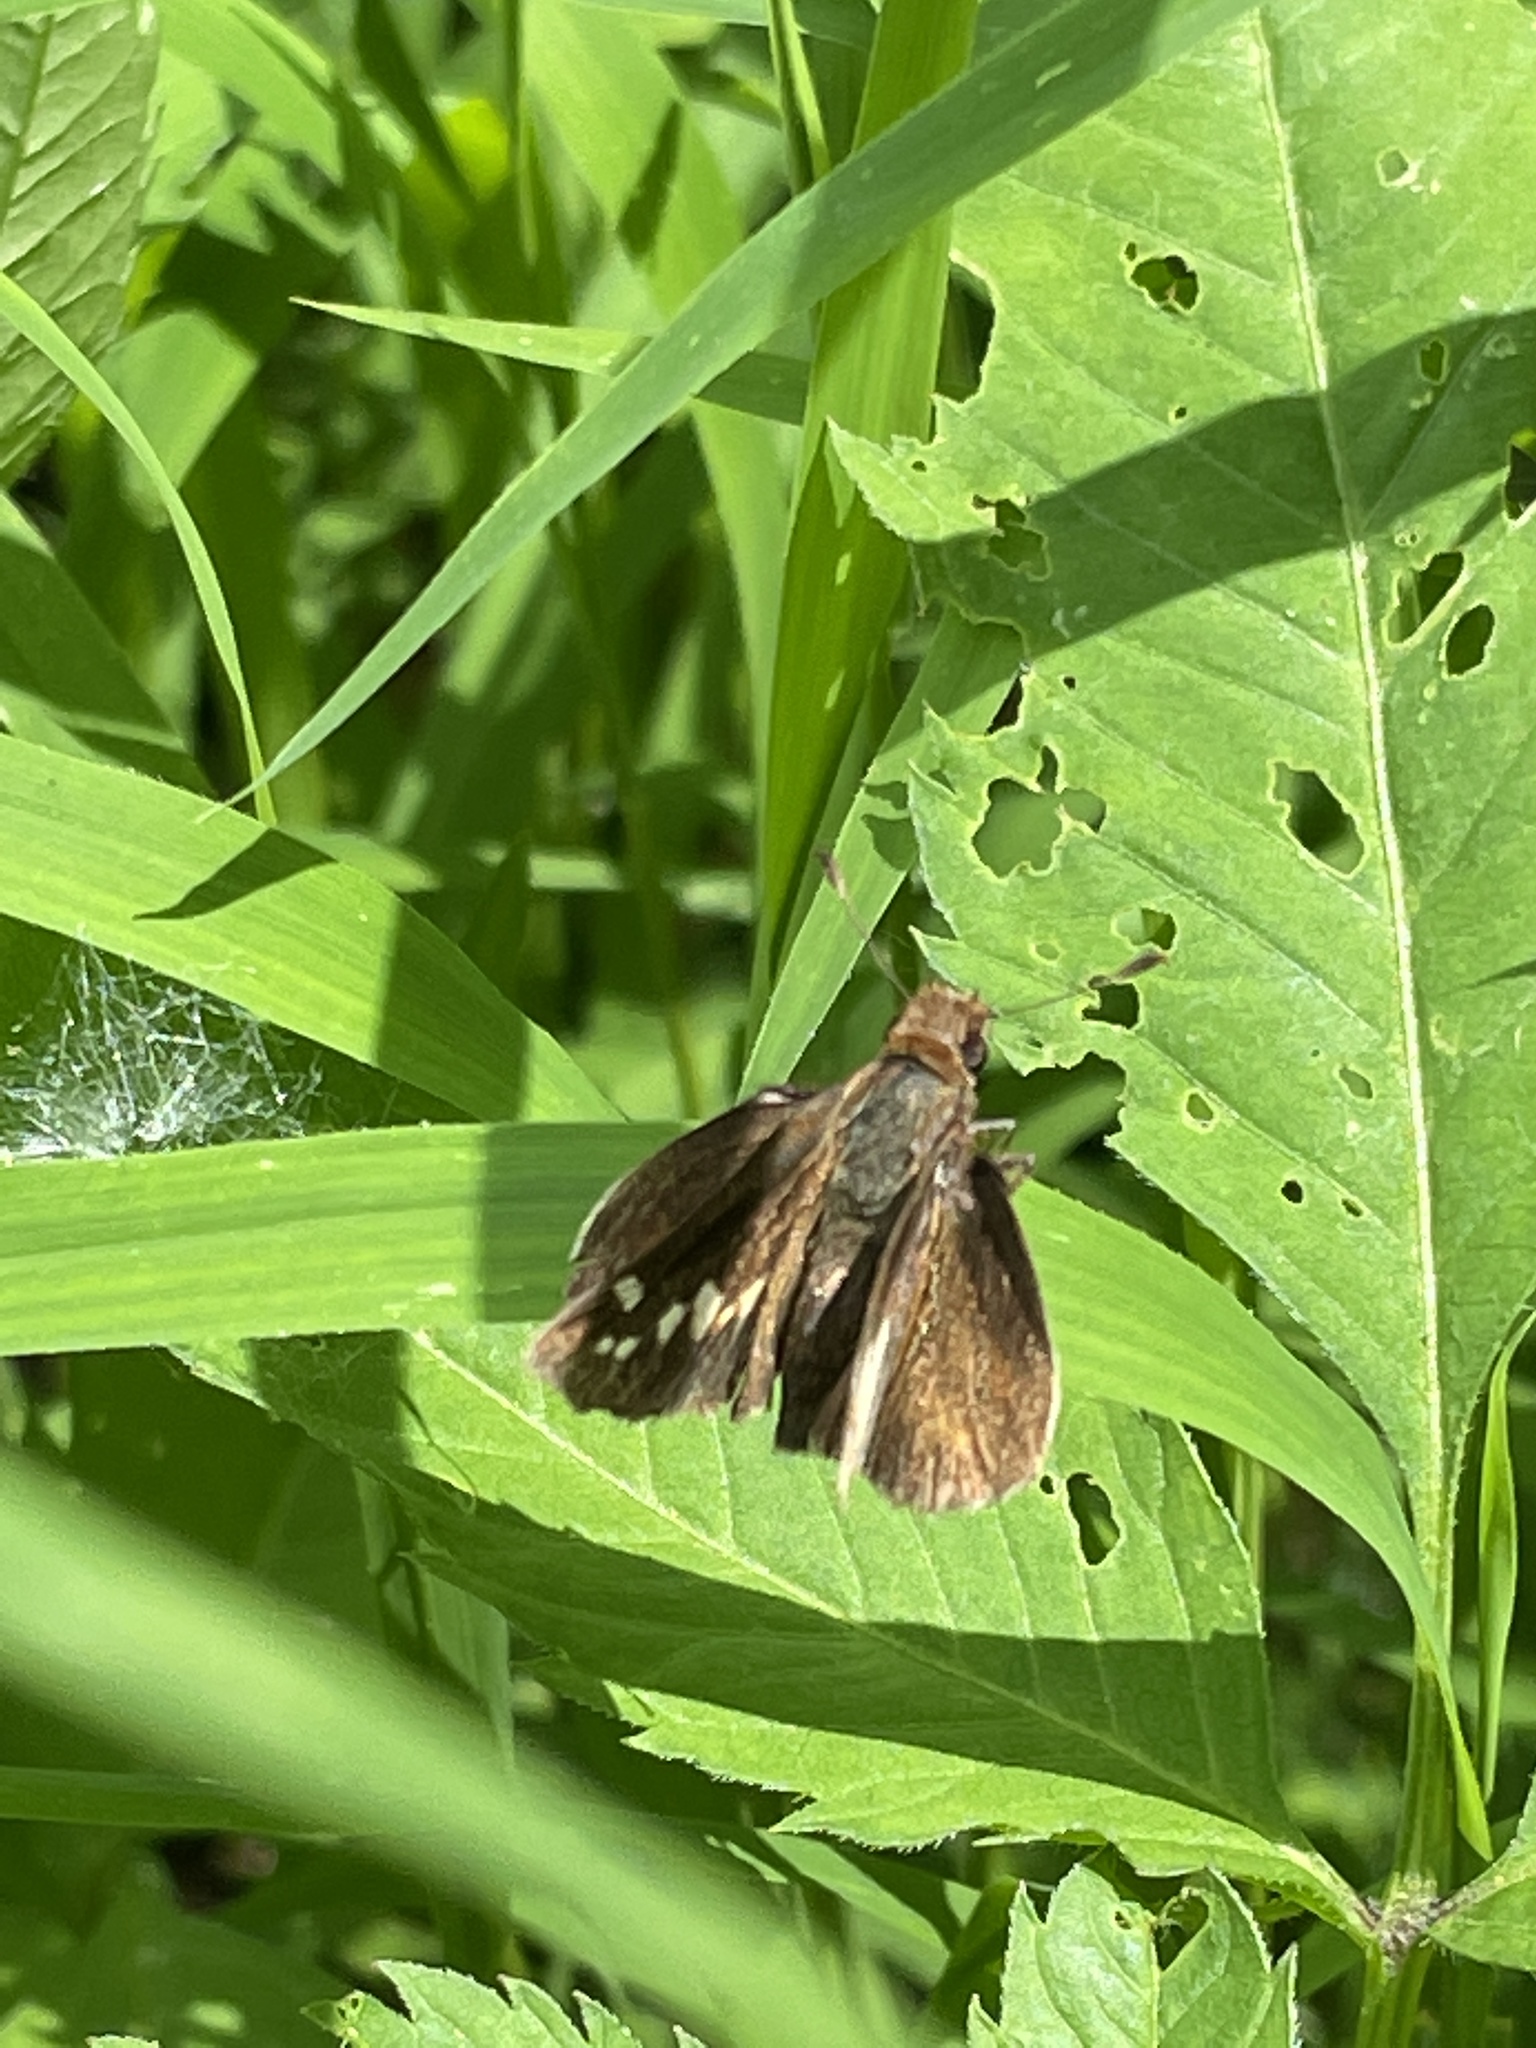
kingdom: Animalia
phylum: Arthropoda
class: Insecta
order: Lepidoptera
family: Hesperiidae
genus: Lon
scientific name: Lon zabulon
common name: Zabulon skipper
